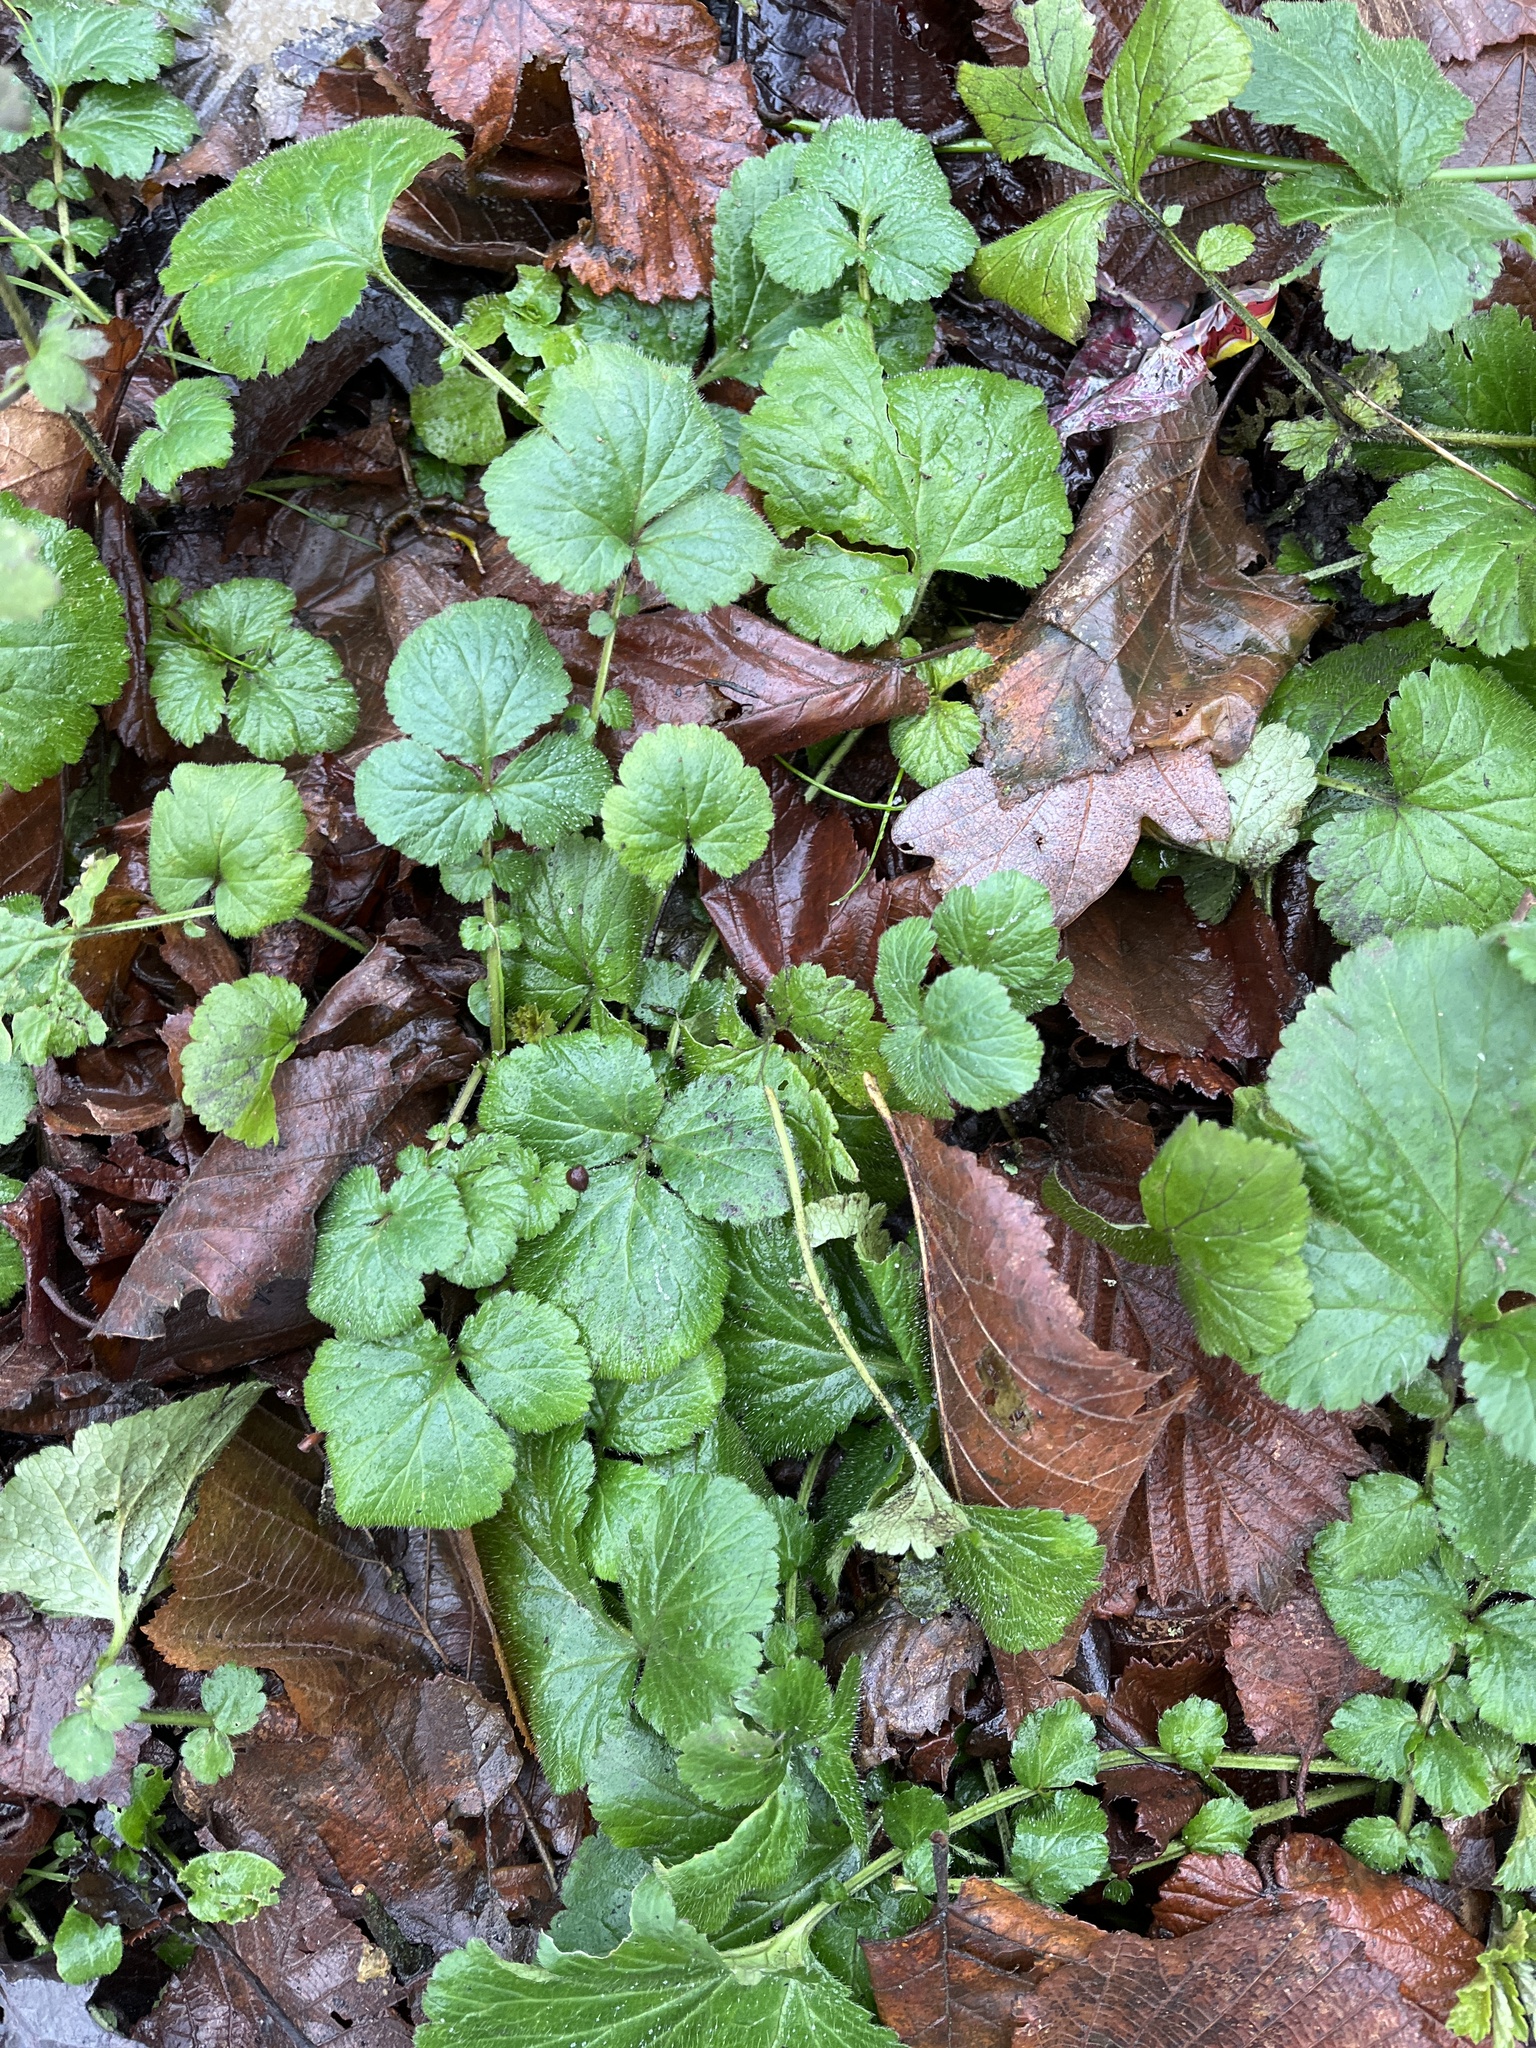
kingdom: Plantae
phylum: Tracheophyta
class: Magnoliopsida
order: Rosales
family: Rosaceae
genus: Geum
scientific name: Geum urbanum
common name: Wood avens
